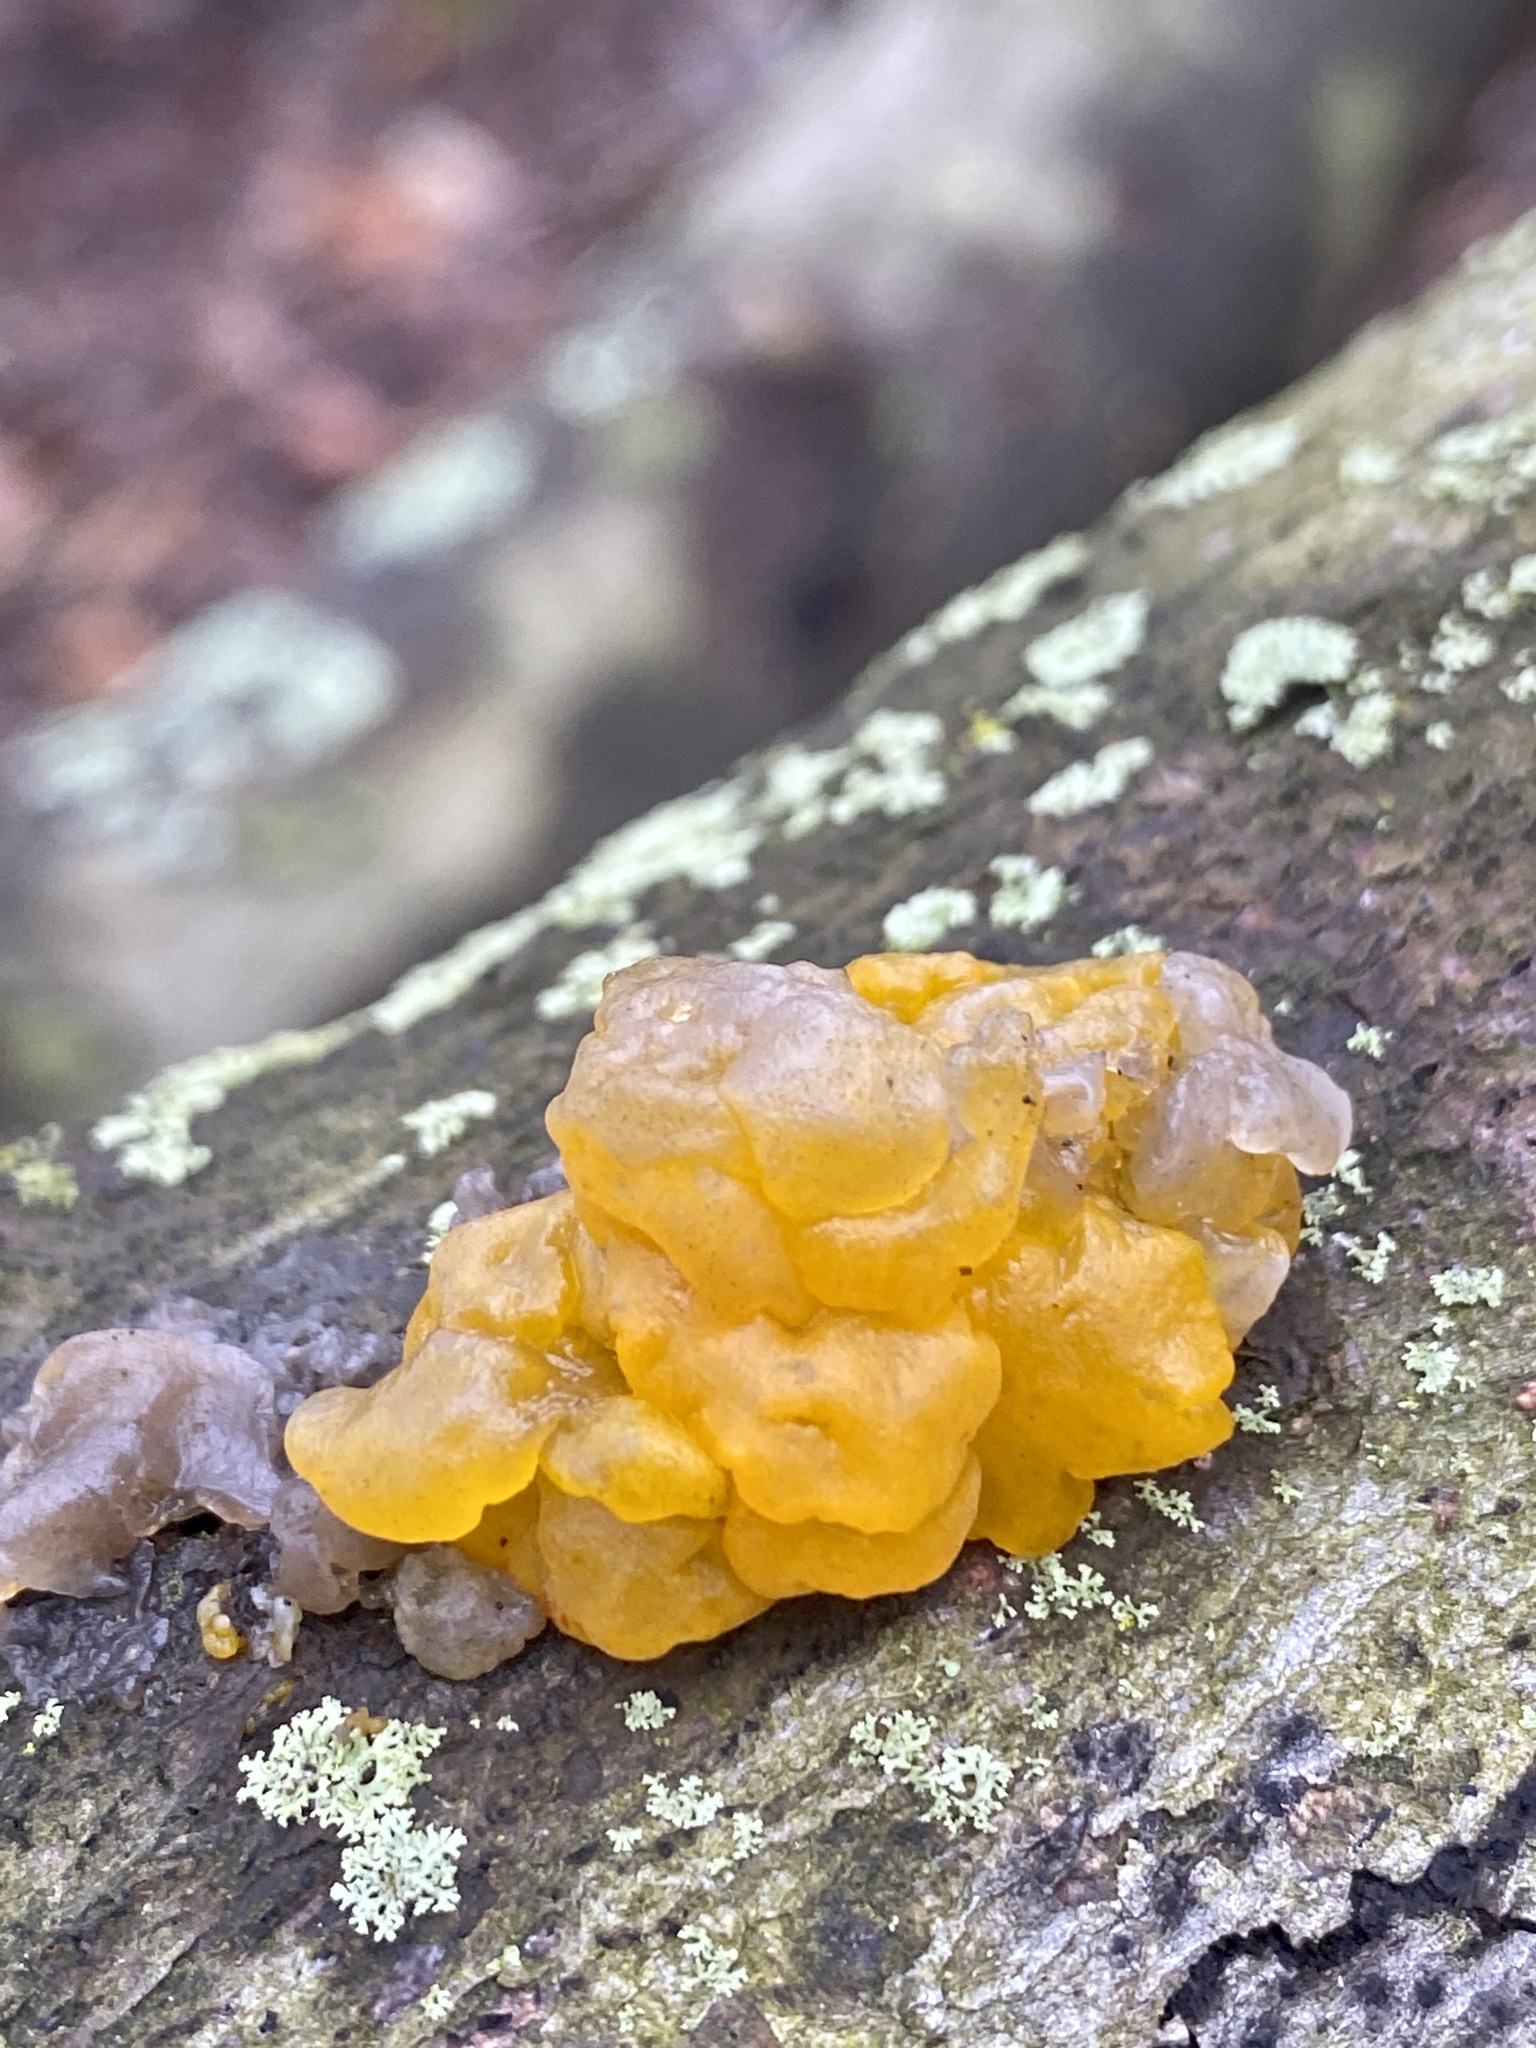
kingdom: Fungi
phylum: Basidiomycota
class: Tremellomycetes
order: Tremellales
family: Tremellaceae
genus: Tremella
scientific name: Tremella mesenterica
